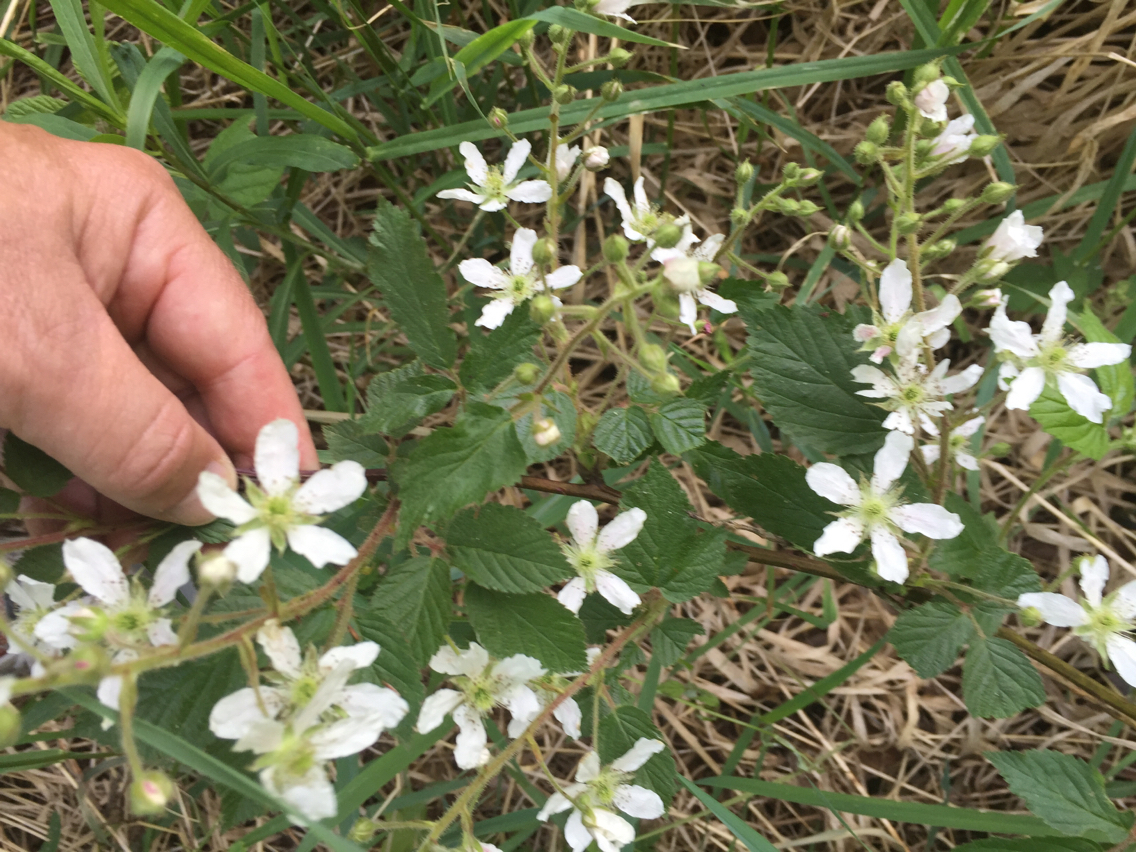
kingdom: Plantae
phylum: Tracheophyta
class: Magnoliopsida
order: Rosales
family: Rosaceae
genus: Rubus
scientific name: Rubus allegheniensis
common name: Allegheny blackberry
